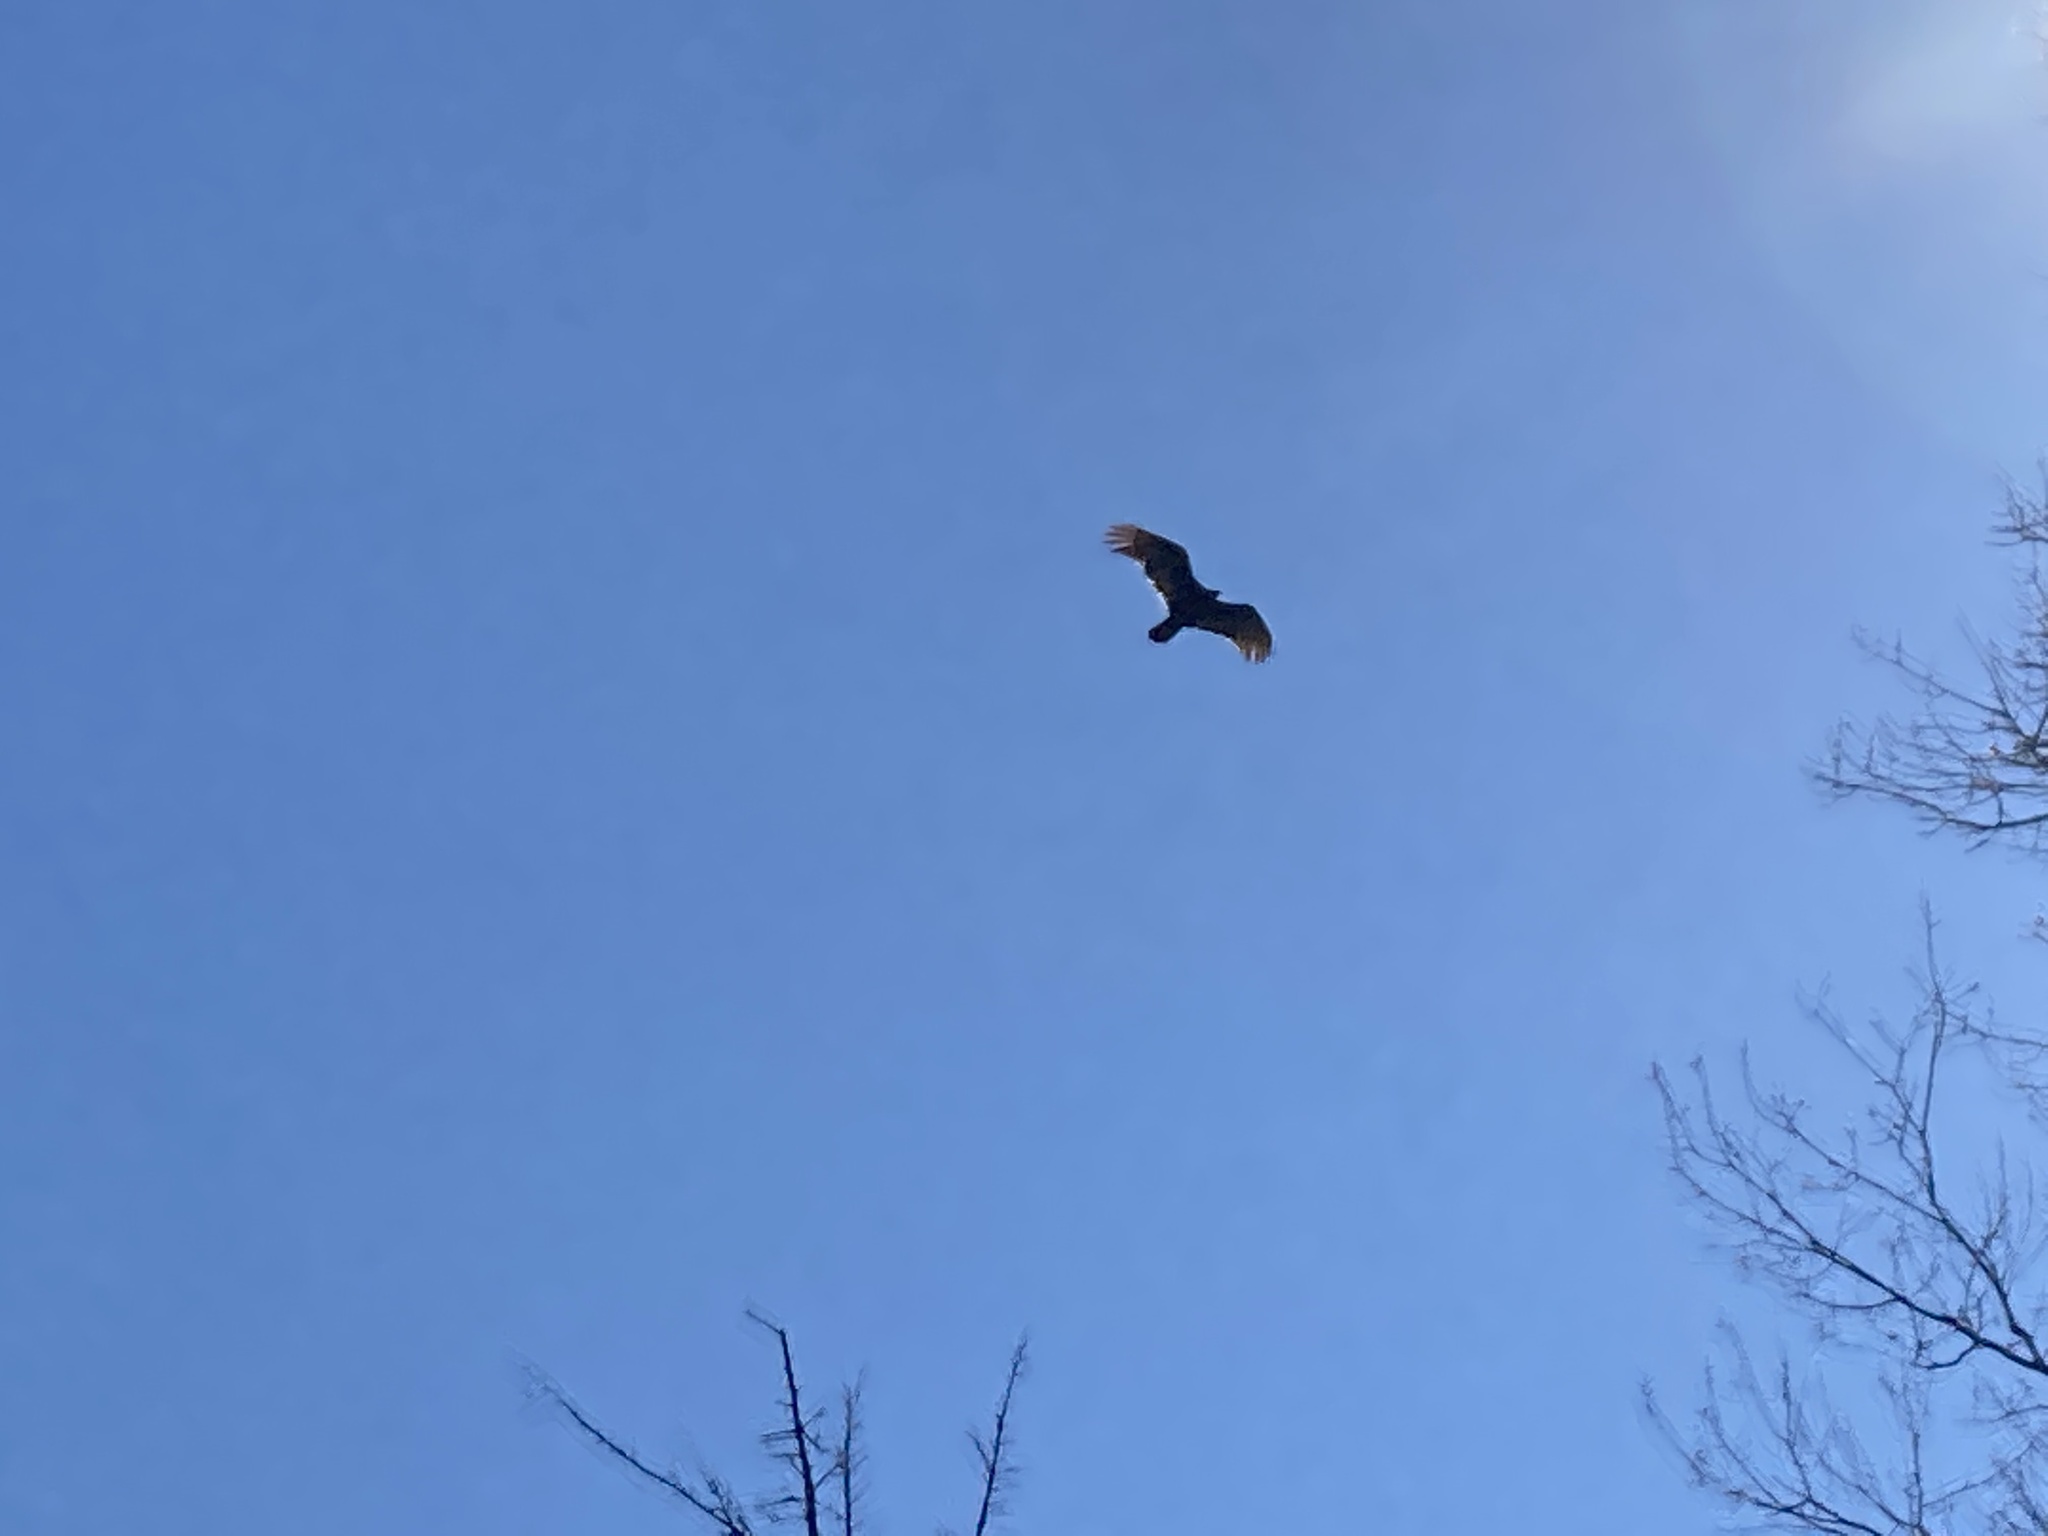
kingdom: Animalia
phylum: Chordata
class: Aves
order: Accipitriformes
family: Cathartidae
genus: Cathartes
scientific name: Cathartes aura
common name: Turkey vulture
